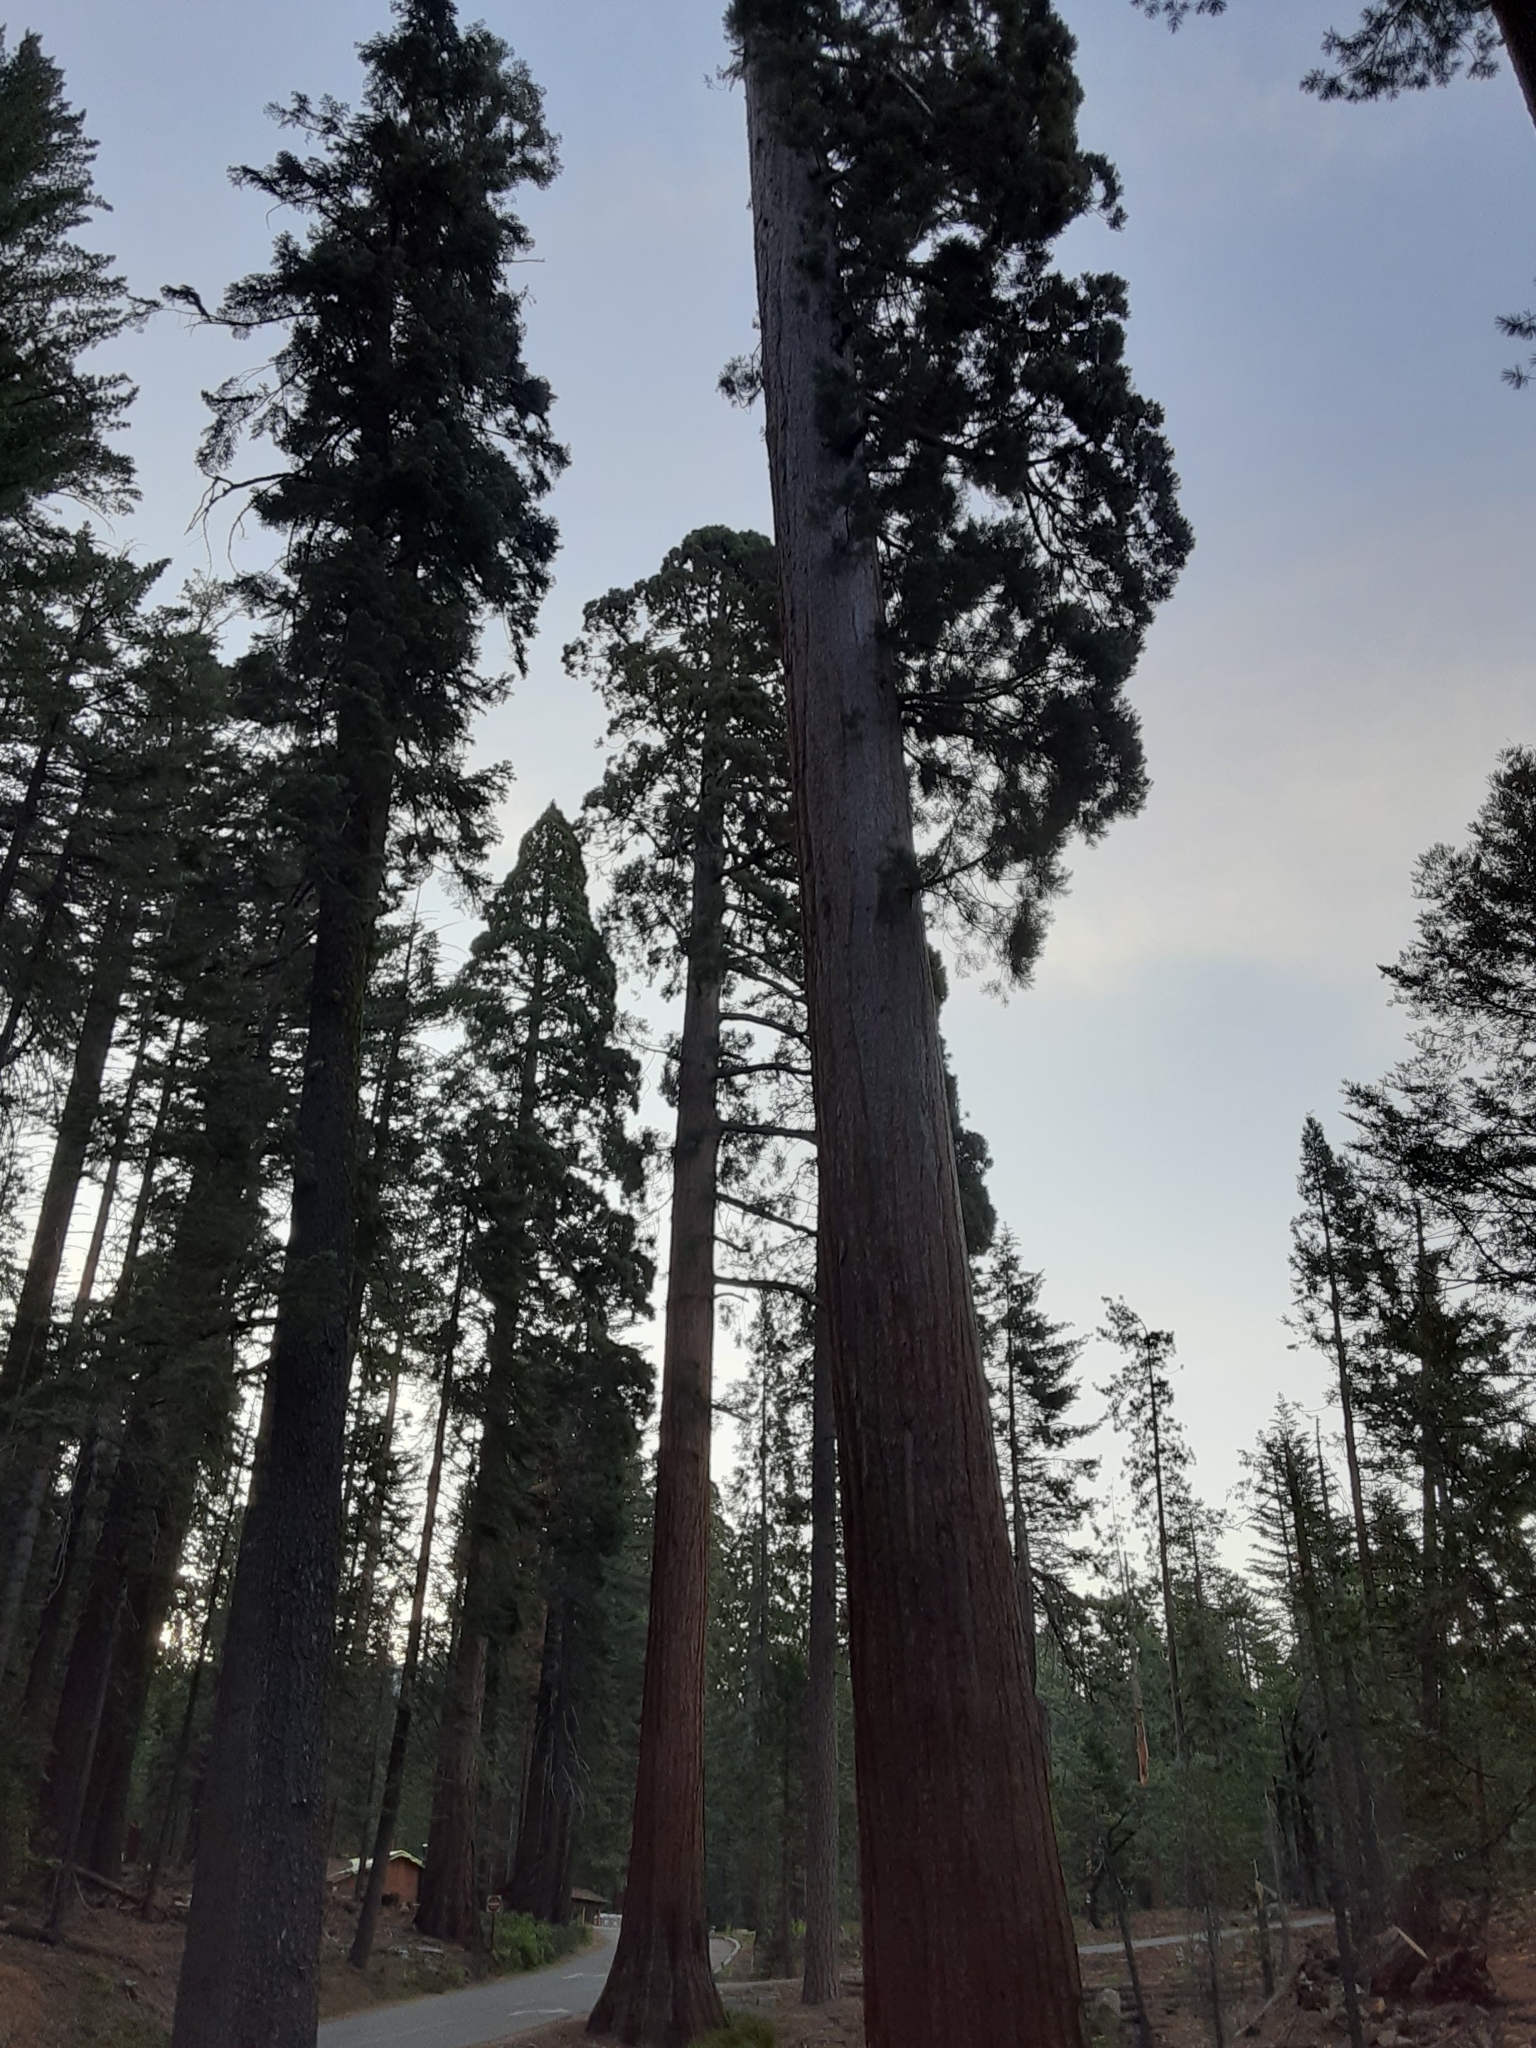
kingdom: Plantae
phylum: Tracheophyta
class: Pinopsida
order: Pinales
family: Cupressaceae
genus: Sequoiadendron
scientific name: Sequoiadendron giganteum
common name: Wellingtonia
